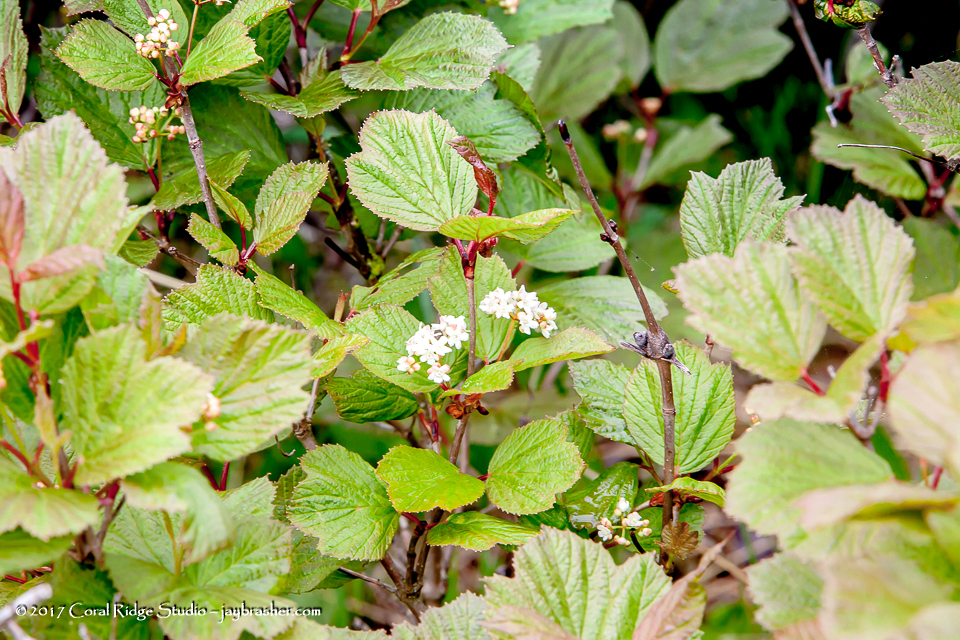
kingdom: Plantae
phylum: Tracheophyta
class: Magnoliopsida
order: Dipsacales
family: Viburnaceae
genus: Viburnum
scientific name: Viburnum edule
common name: Mooseberry
